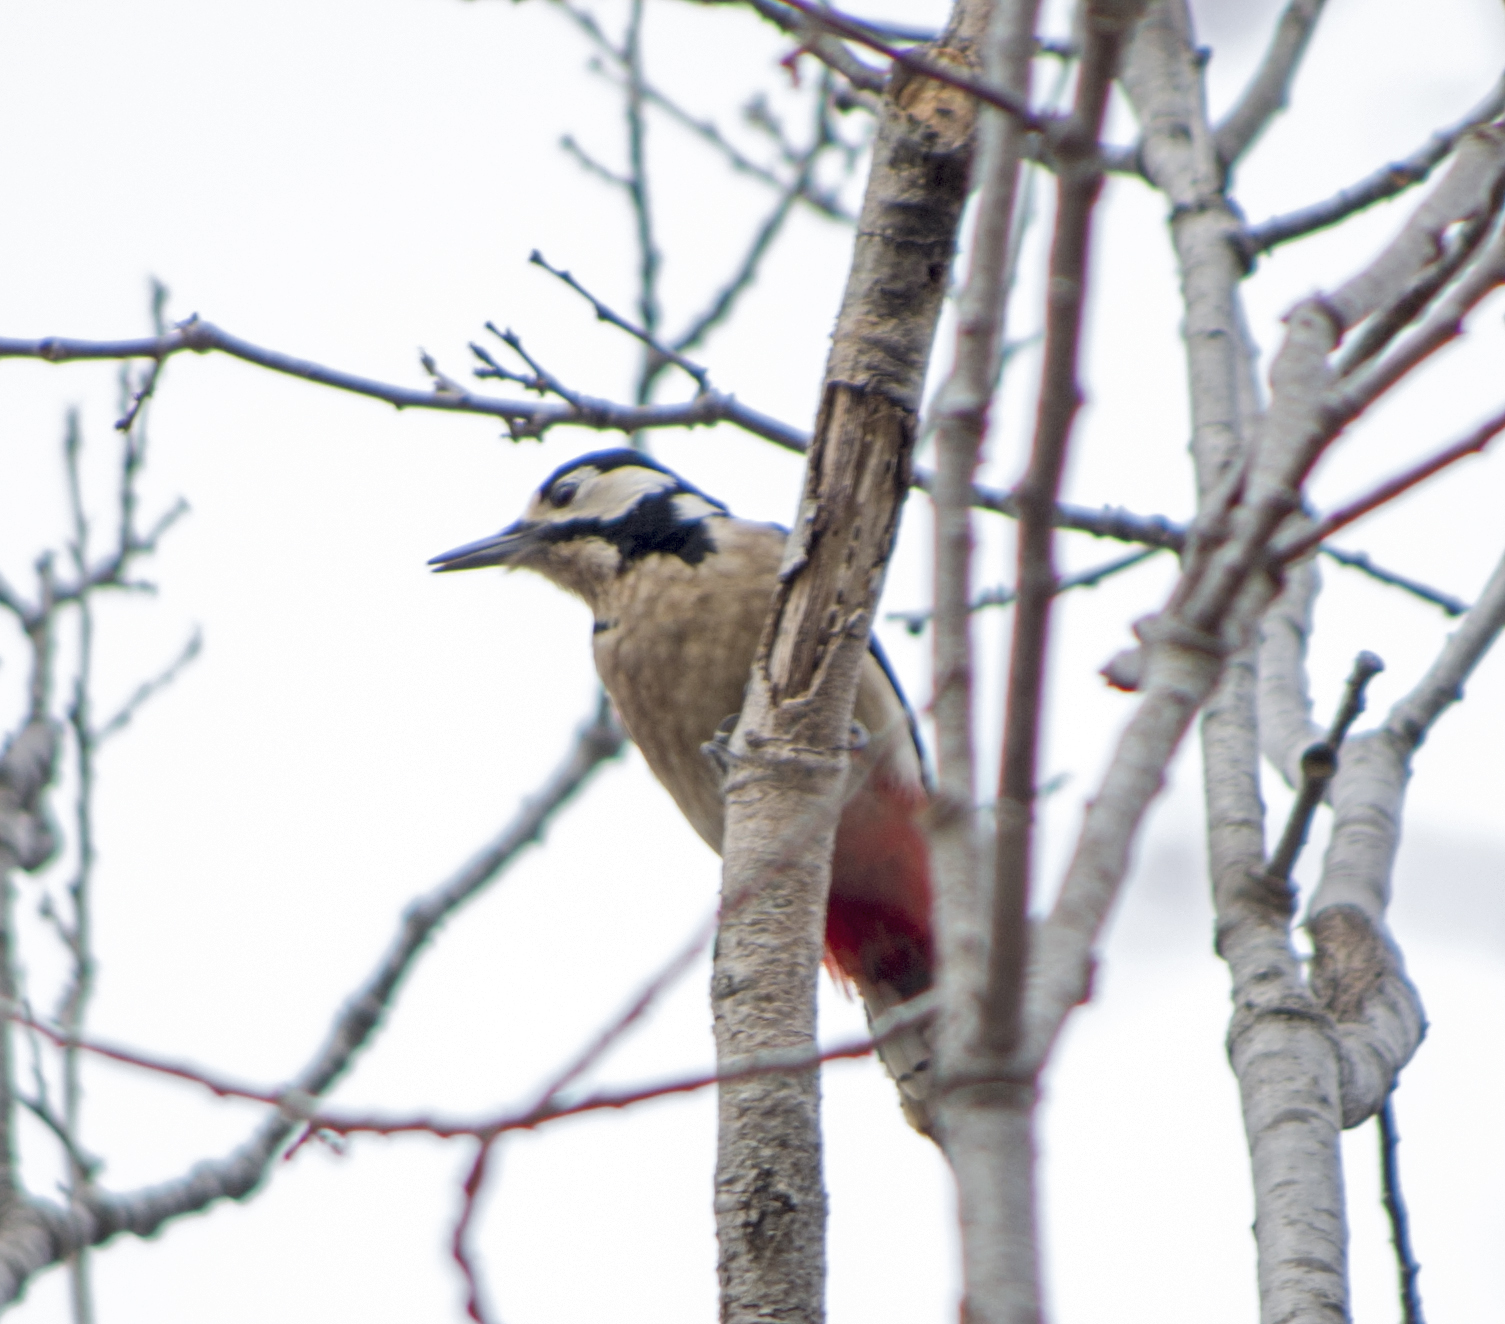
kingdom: Animalia
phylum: Chordata
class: Aves
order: Piciformes
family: Picidae
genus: Dendrocopos
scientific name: Dendrocopos major
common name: Great spotted woodpecker
